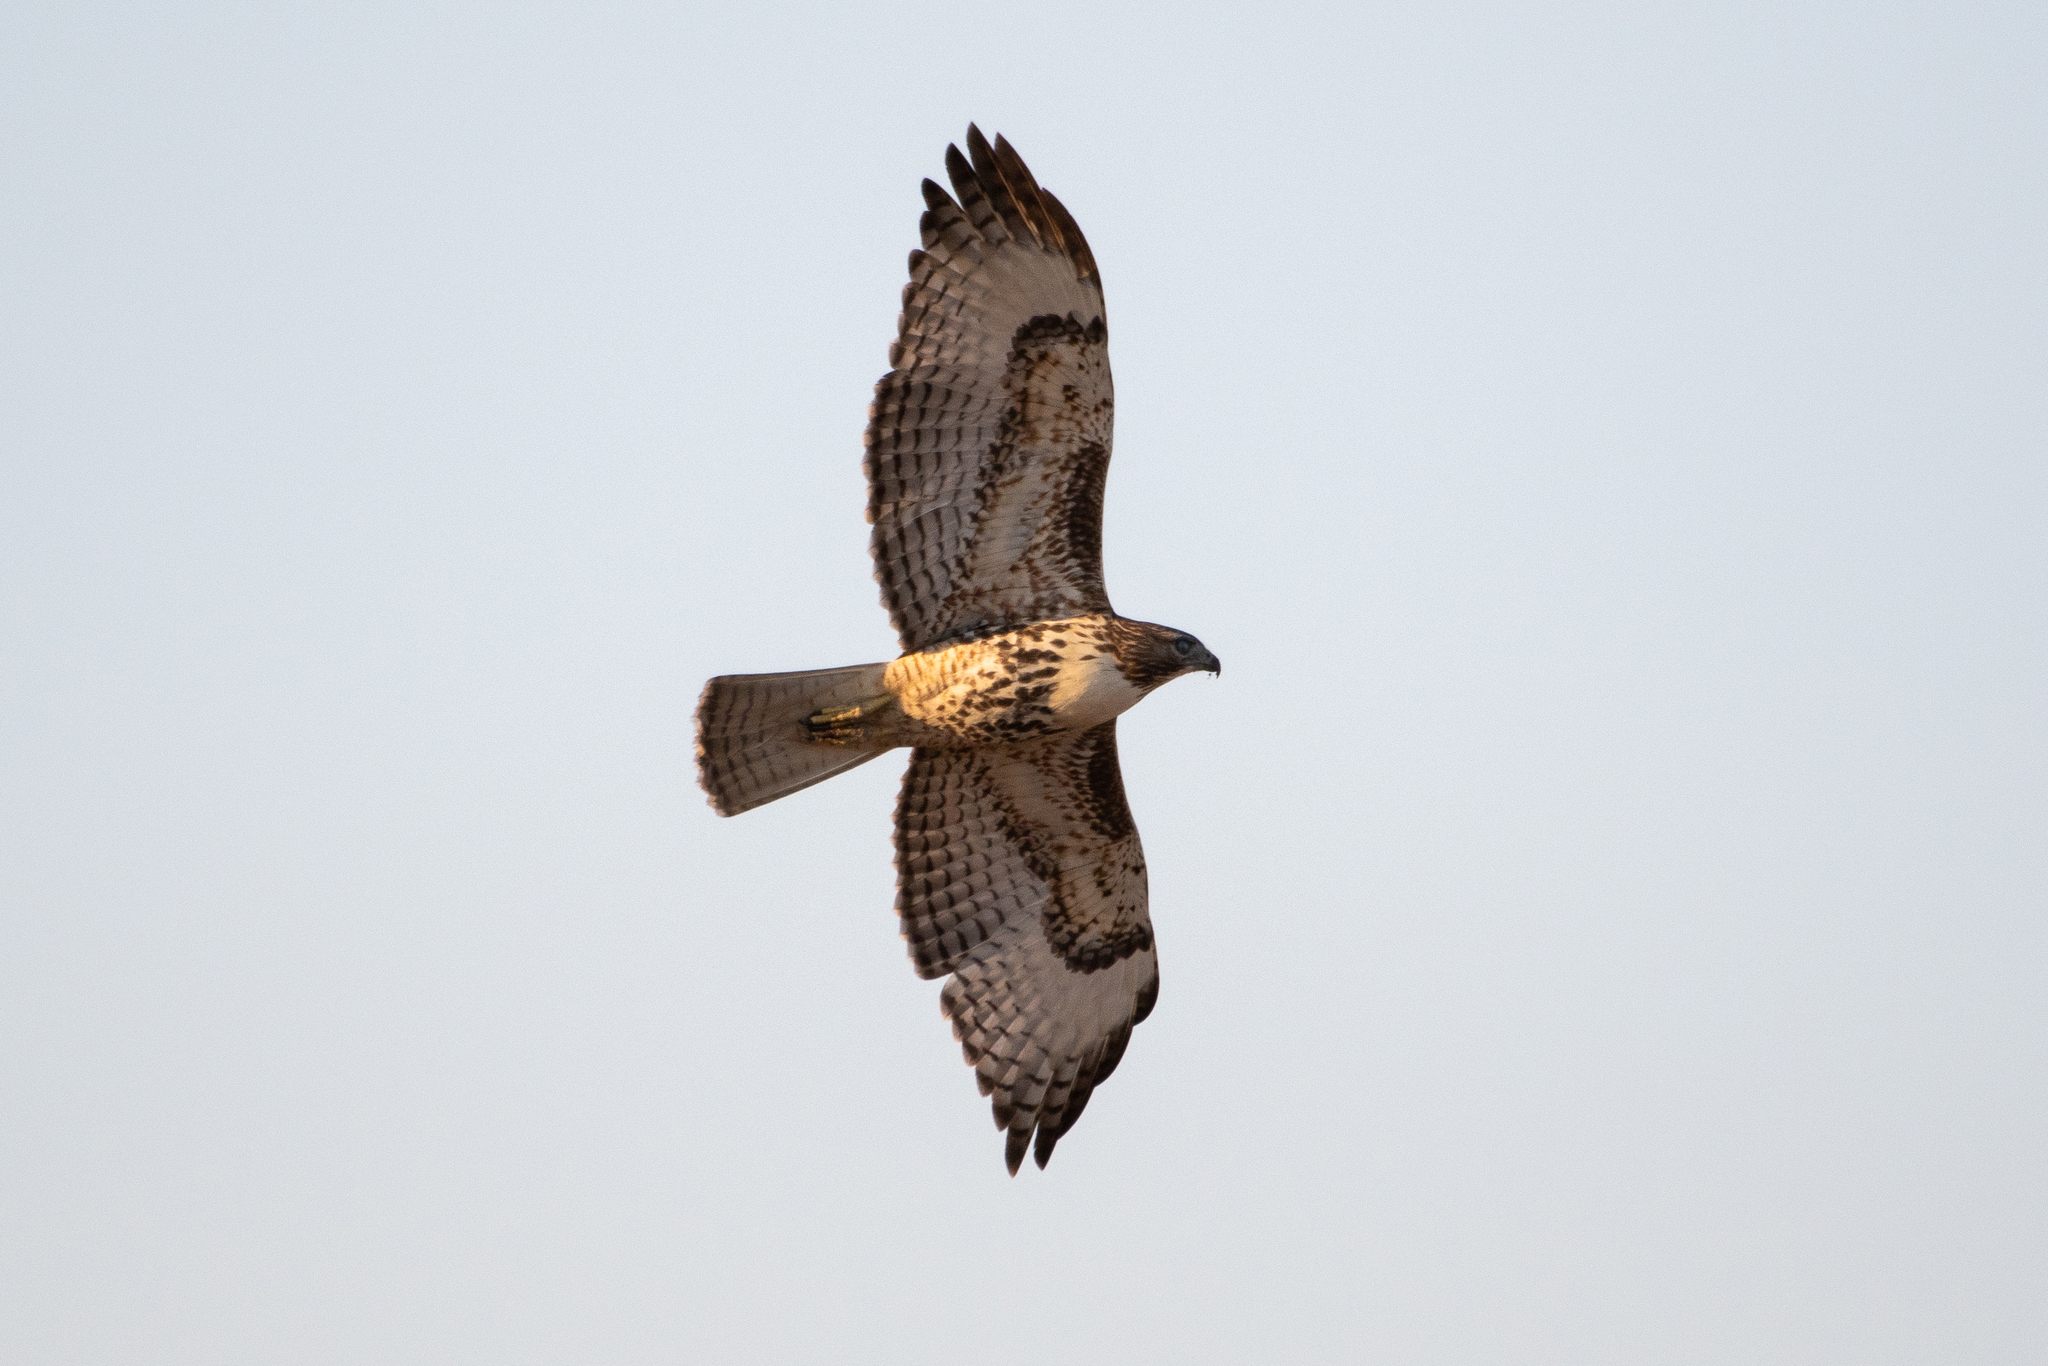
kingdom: Animalia
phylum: Chordata
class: Aves
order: Accipitriformes
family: Accipitridae
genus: Buteo
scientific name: Buteo jamaicensis
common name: Red-tailed hawk
